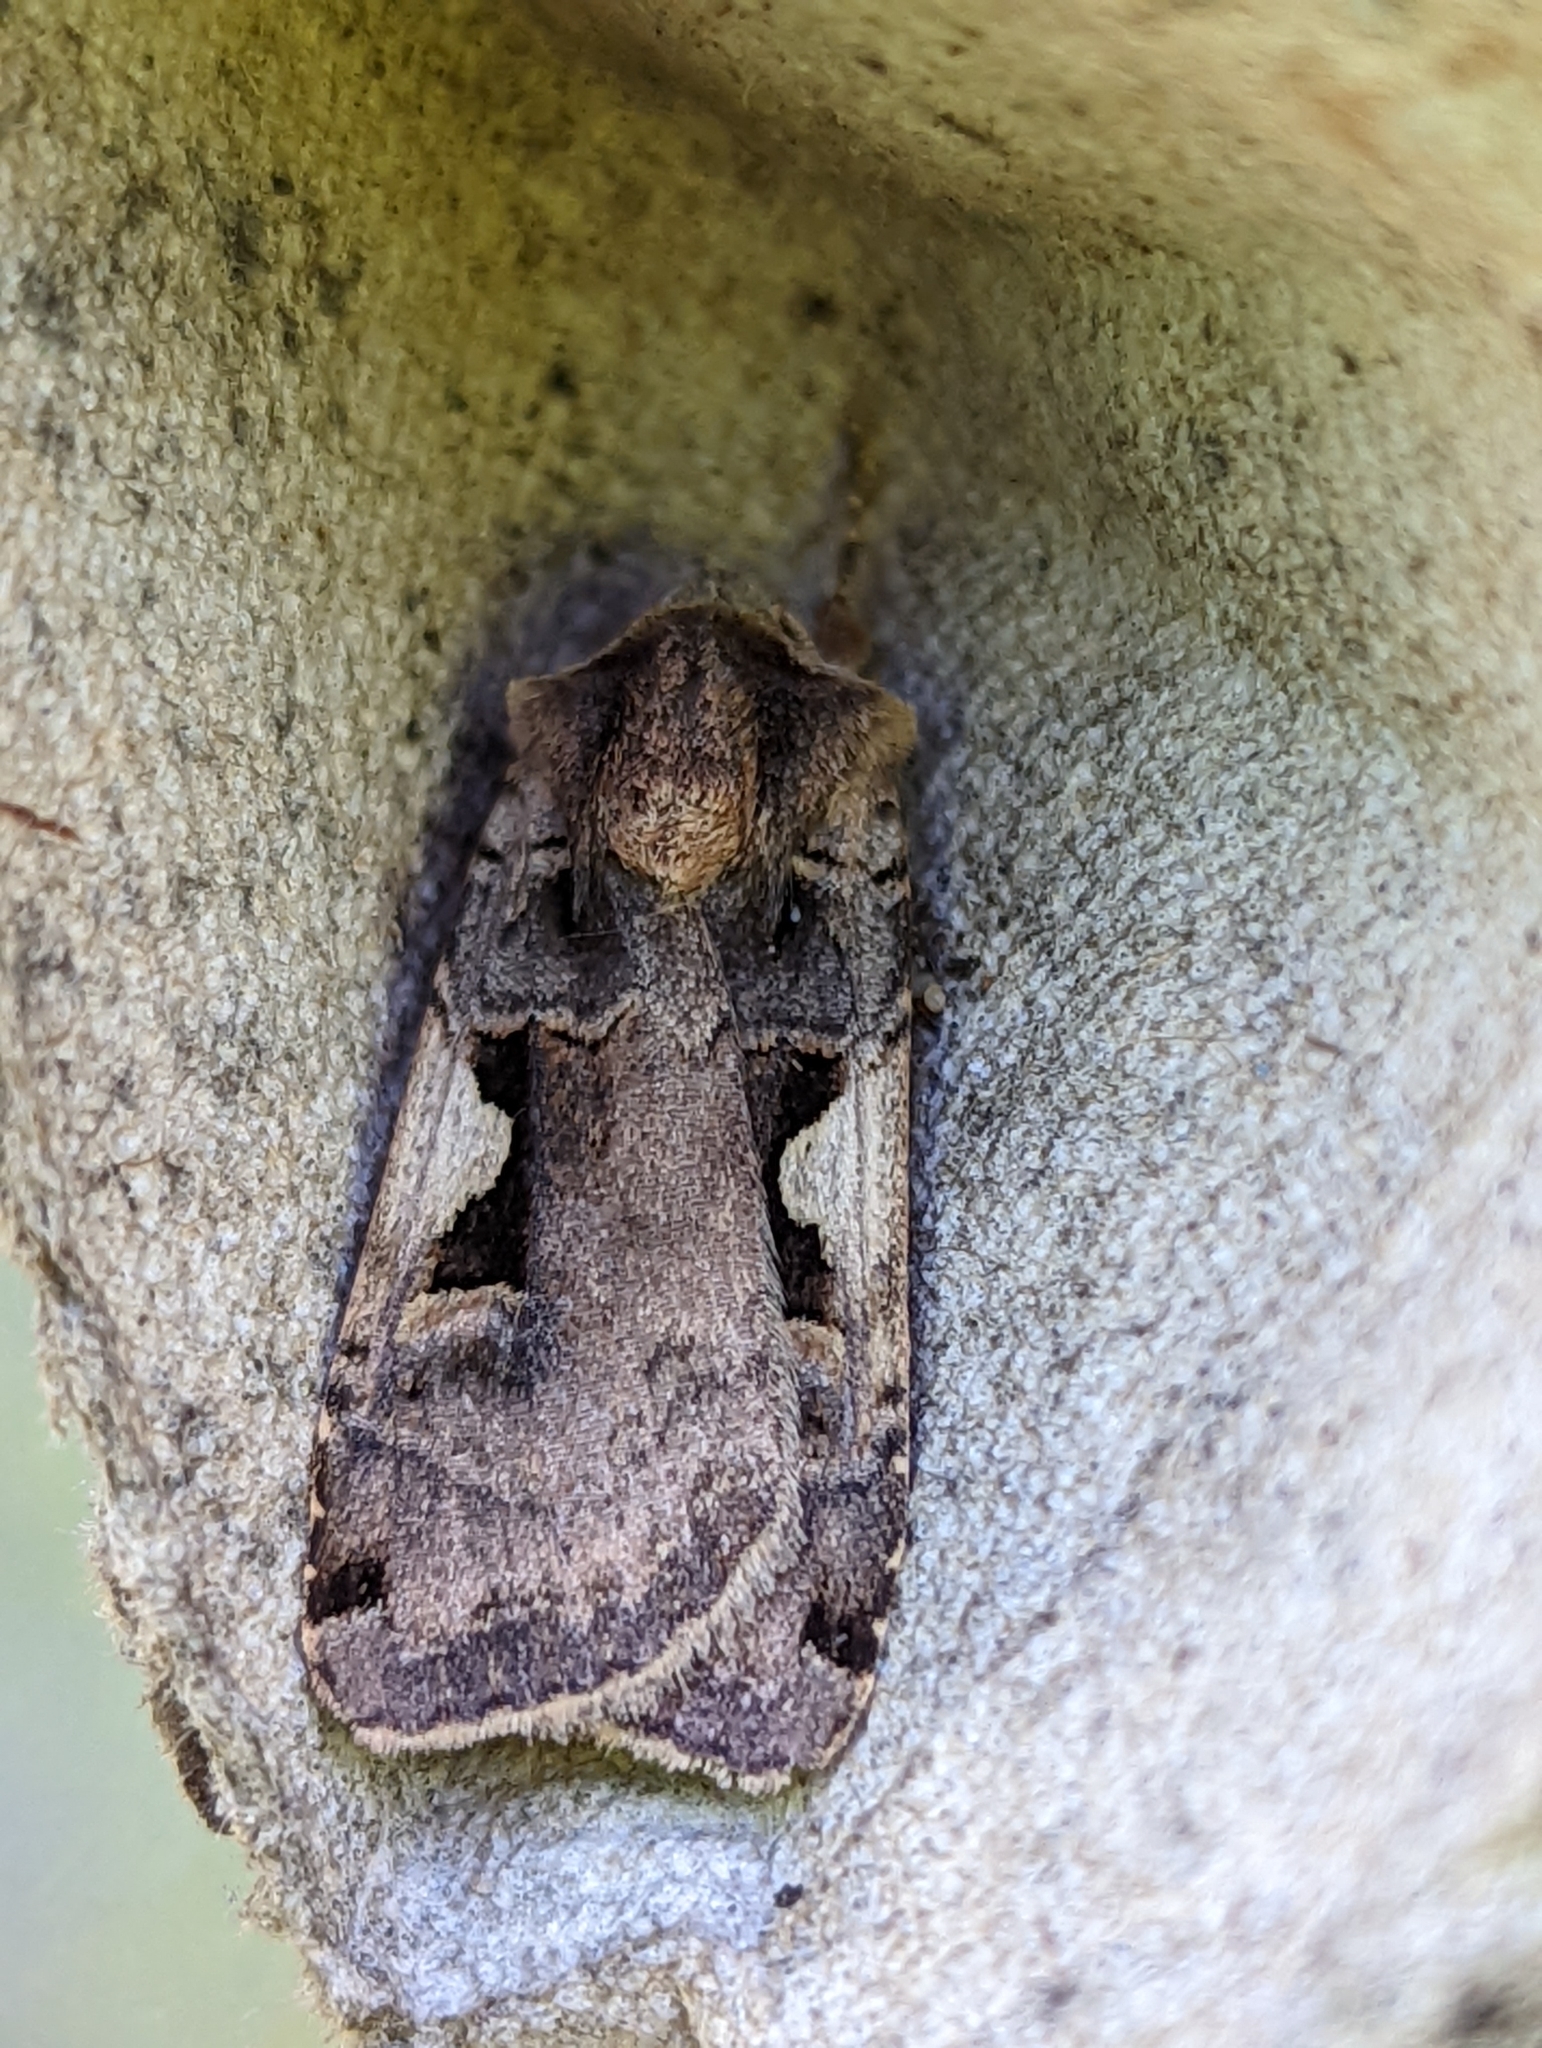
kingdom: Animalia
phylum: Arthropoda
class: Insecta
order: Lepidoptera
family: Noctuidae
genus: Xestia
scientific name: Xestia c-nigrum
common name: Setaceous hebrew character
